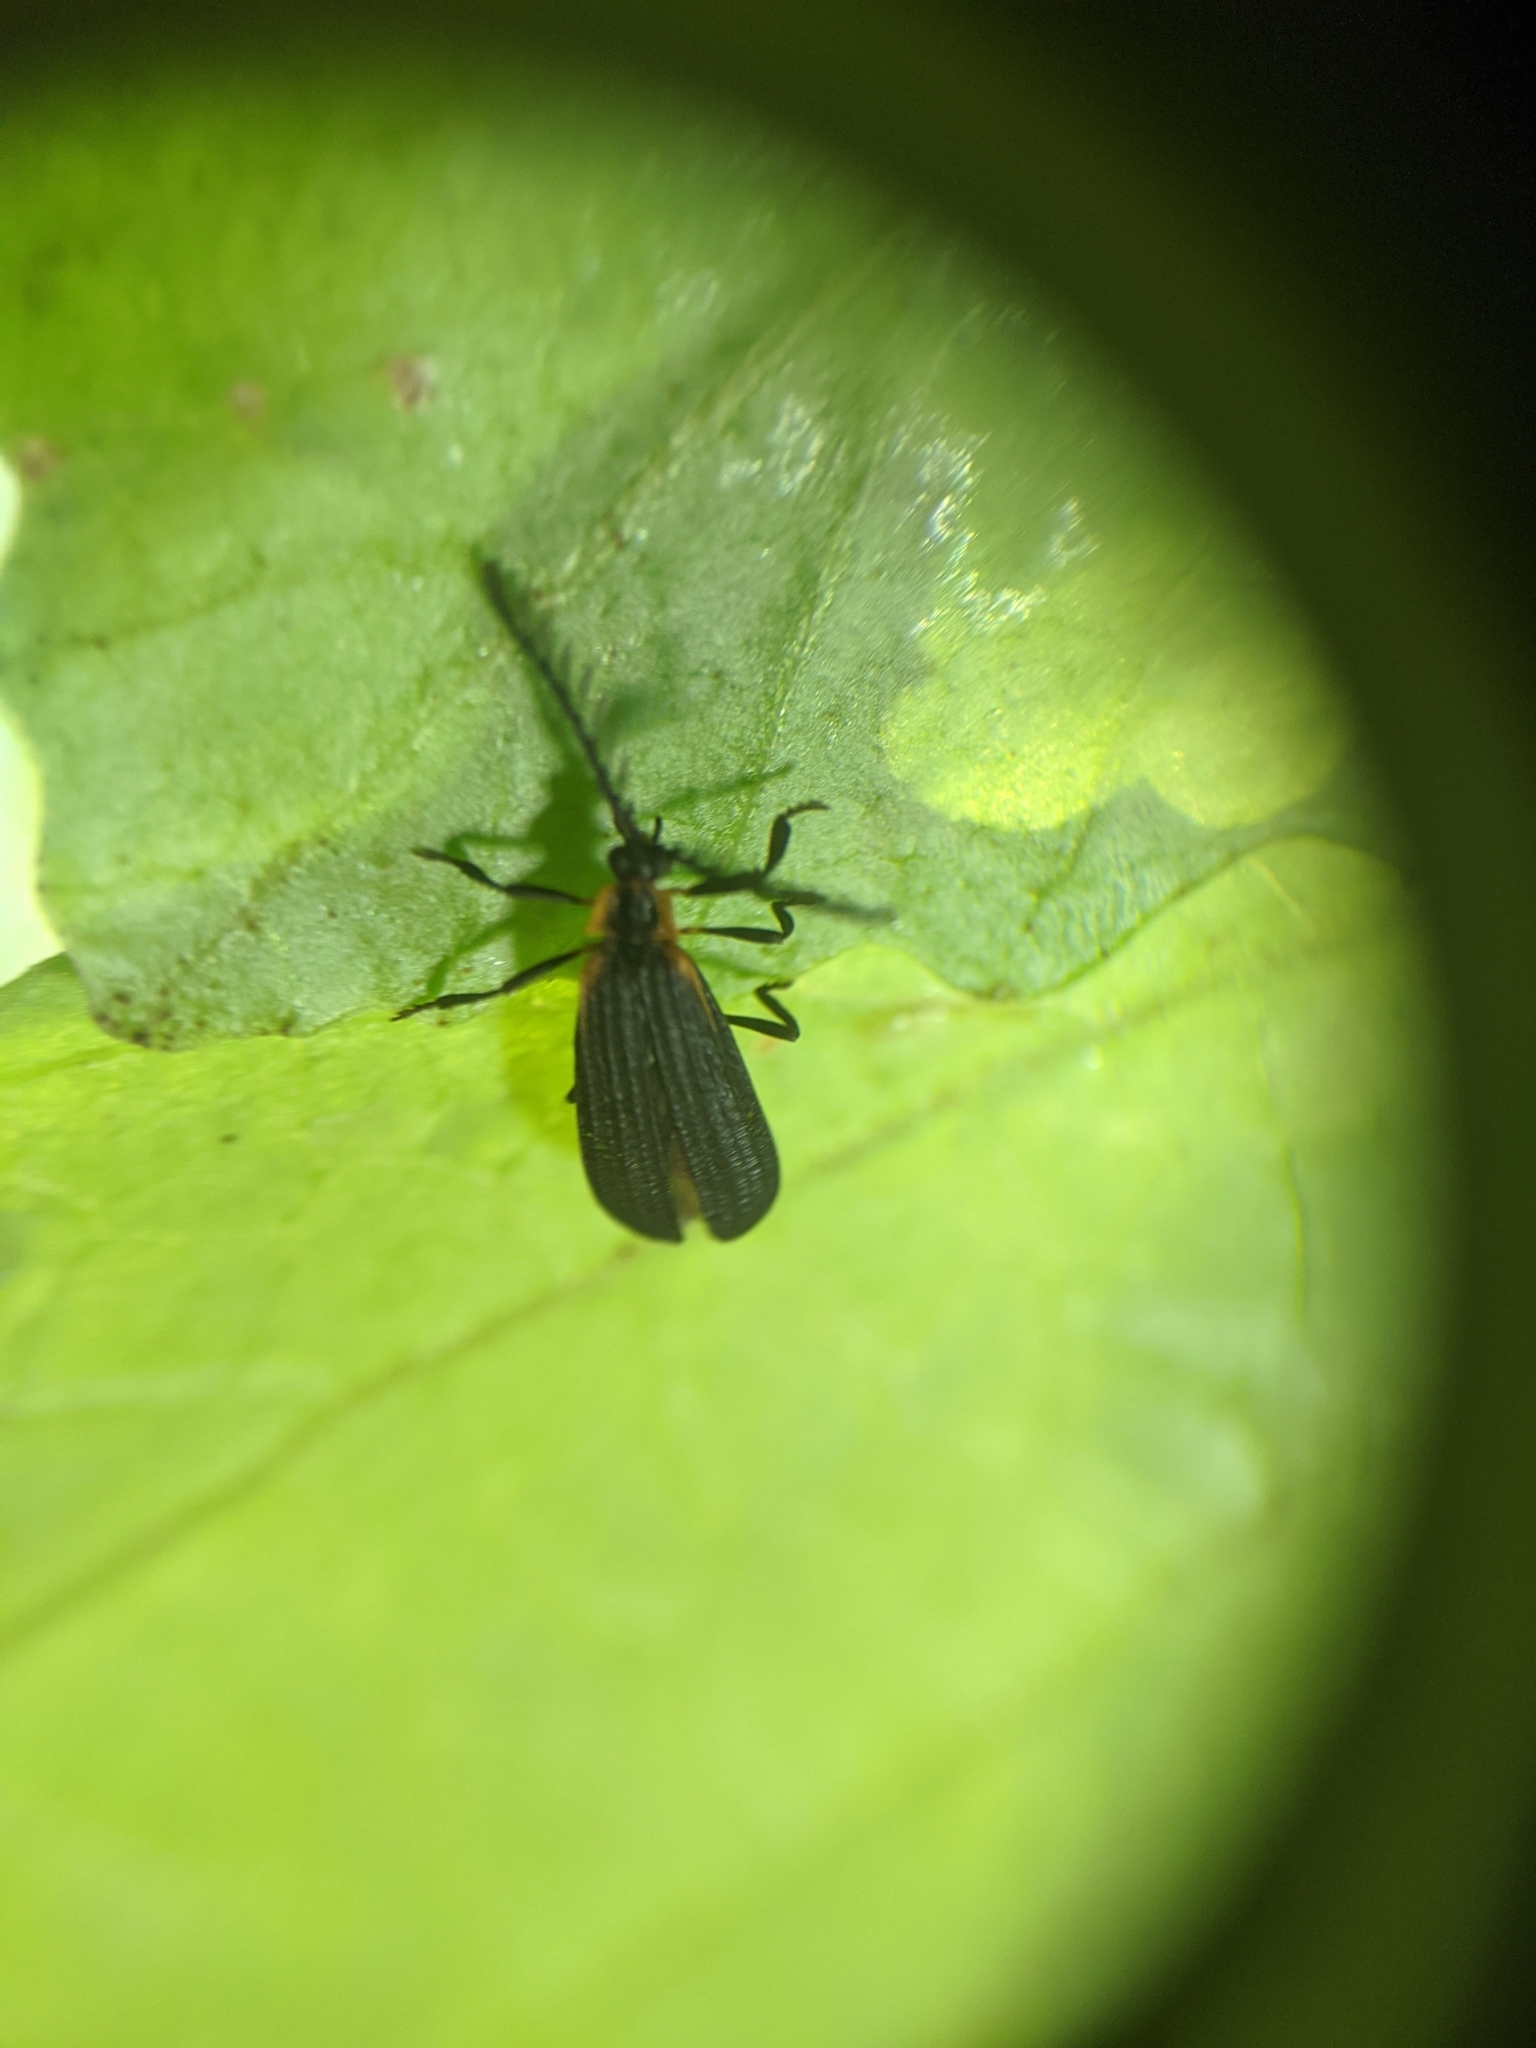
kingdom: Animalia
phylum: Arthropoda
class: Insecta
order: Coleoptera
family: Lycidae
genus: Leptoceletes
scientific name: Leptoceletes basalis
